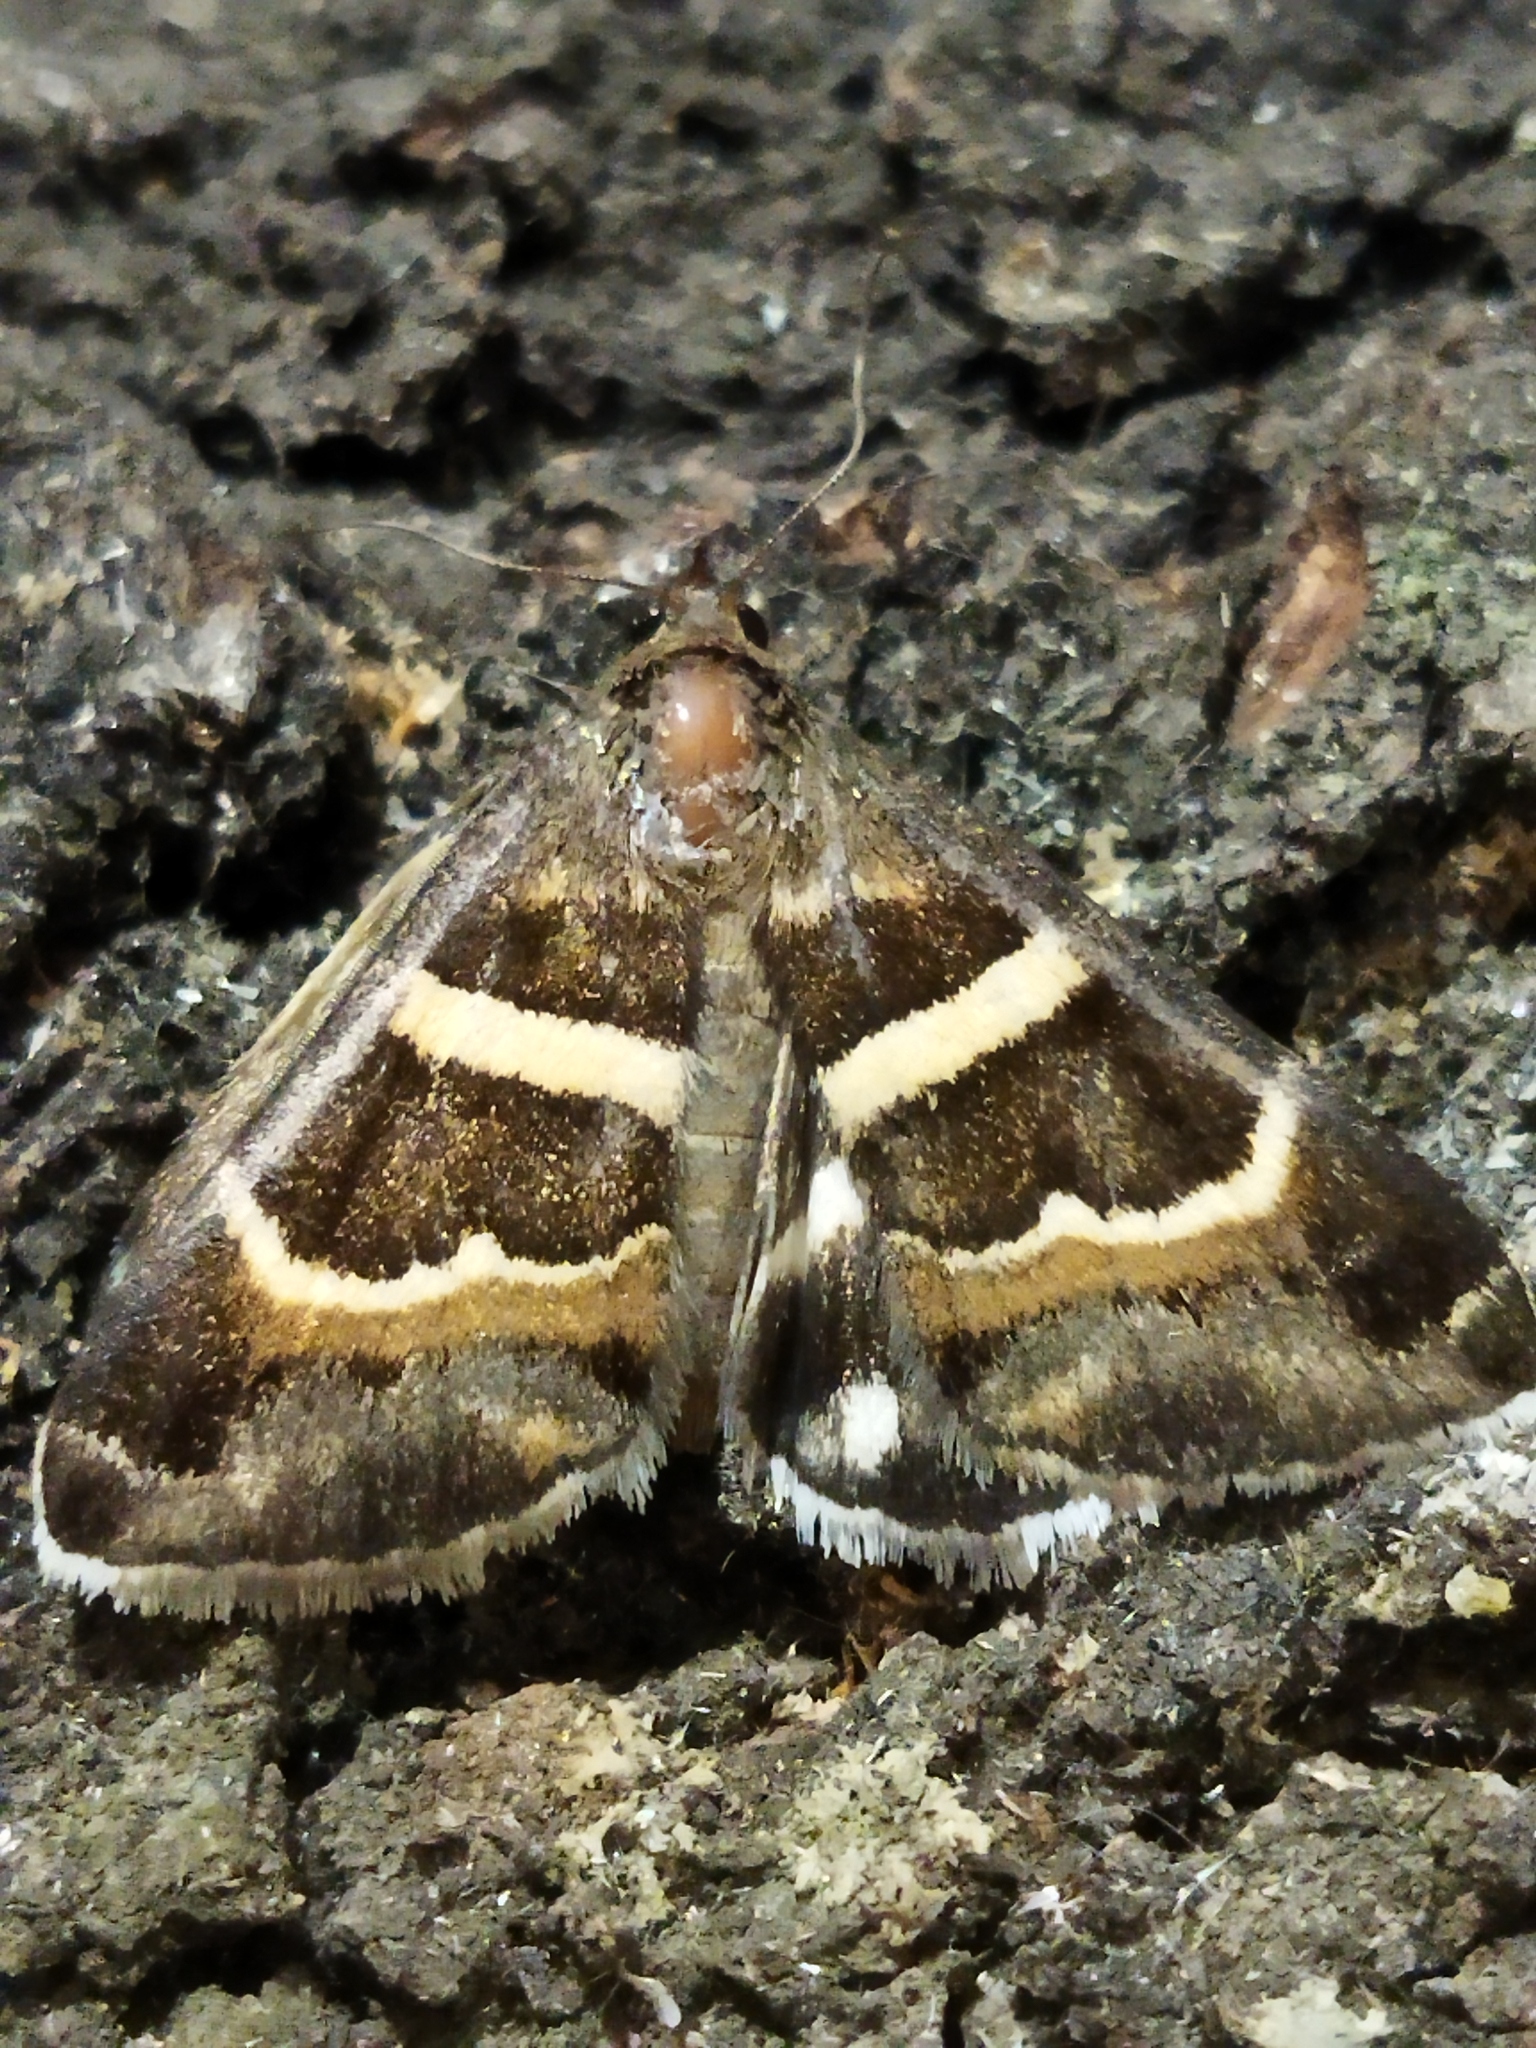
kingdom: Animalia
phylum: Arthropoda
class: Insecta
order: Lepidoptera
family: Erebidae
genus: Grammodes
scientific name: Grammodes stolida
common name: Geometrician
